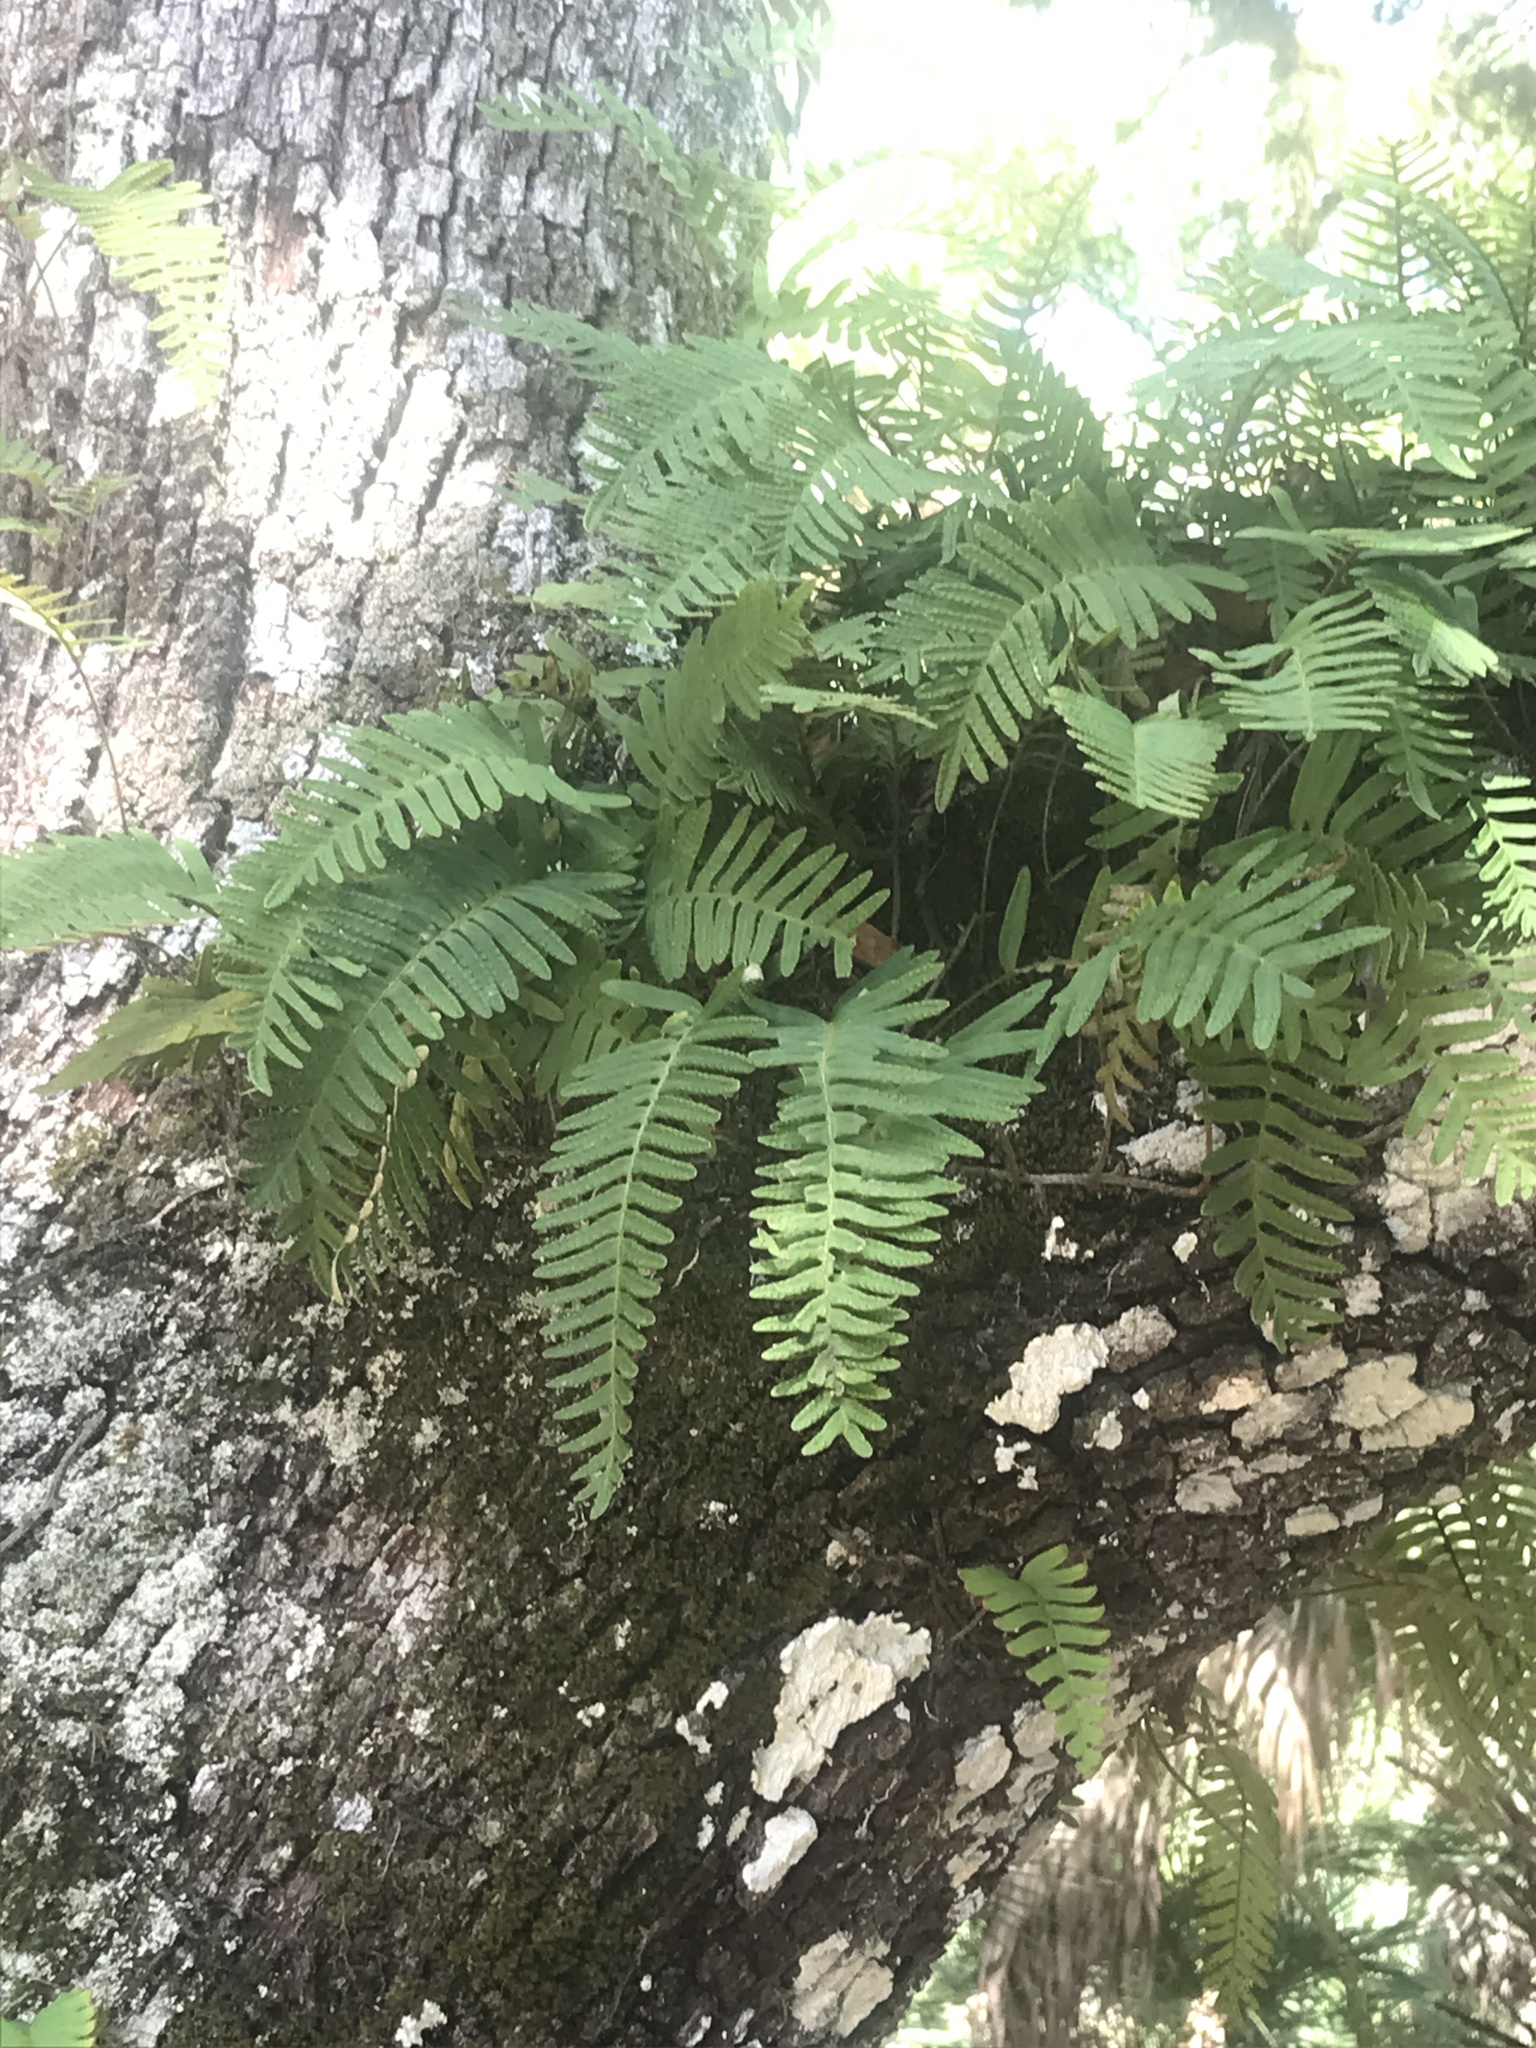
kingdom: Plantae
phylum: Tracheophyta
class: Polypodiopsida
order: Polypodiales
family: Polypodiaceae
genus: Pleopeltis
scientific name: Pleopeltis michauxiana
